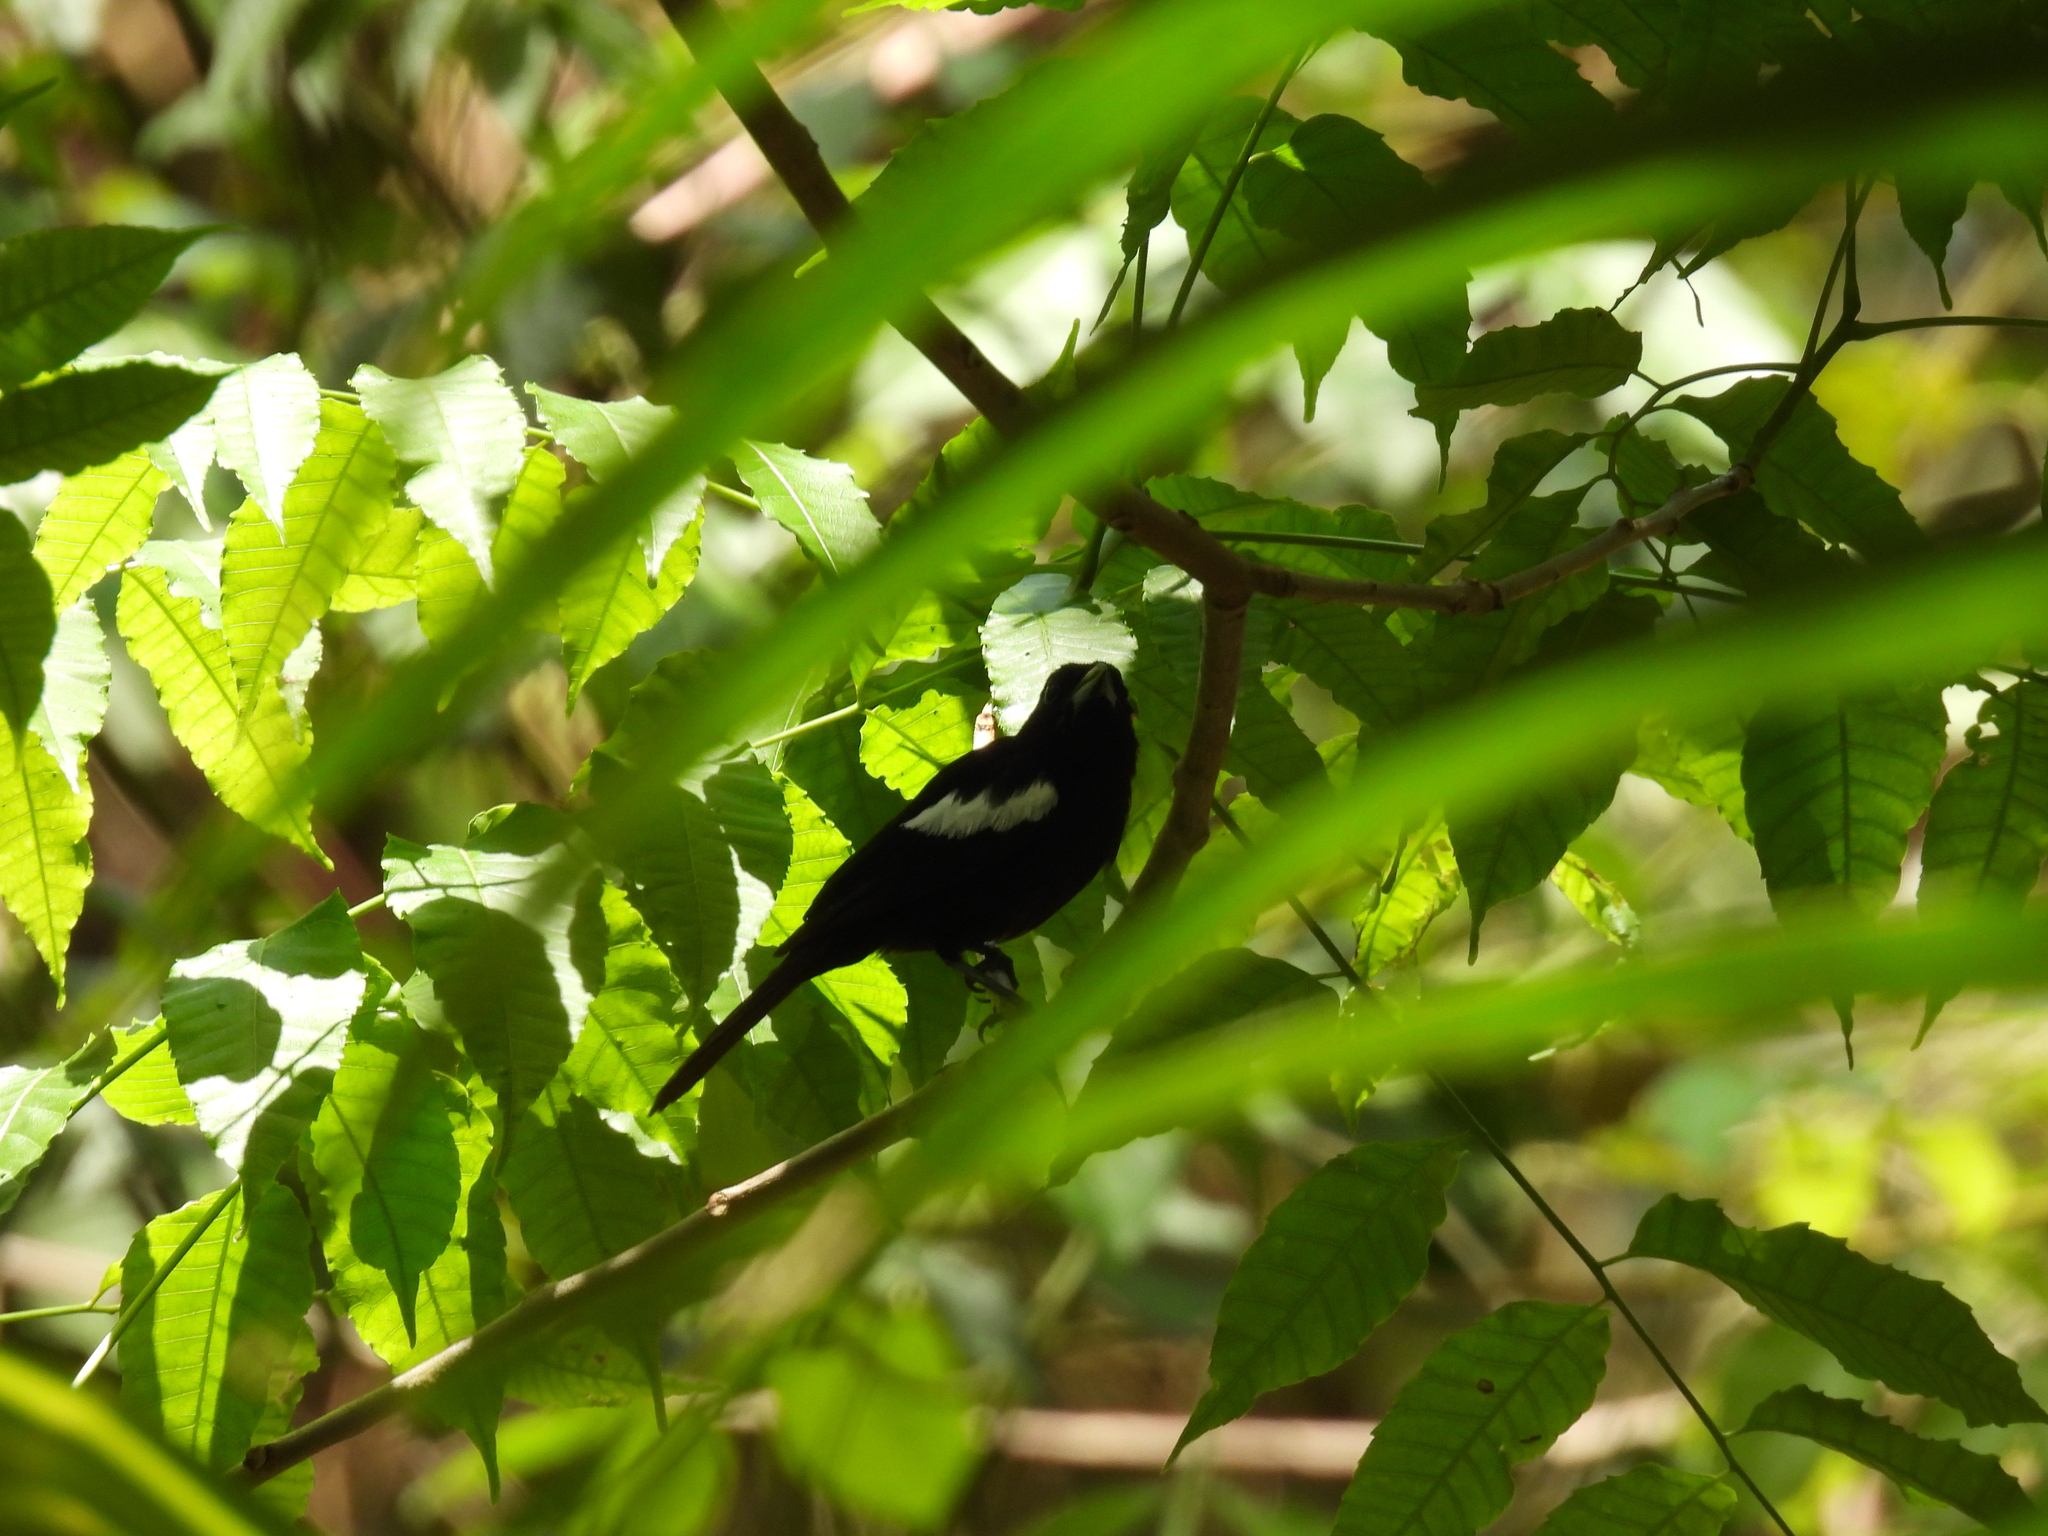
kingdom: Animalia
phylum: Chordata
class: Aves
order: Passeriformes
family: Thraupidae
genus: Loriotus
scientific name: Loriotus luctuosus
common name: White-shouldered tanager
